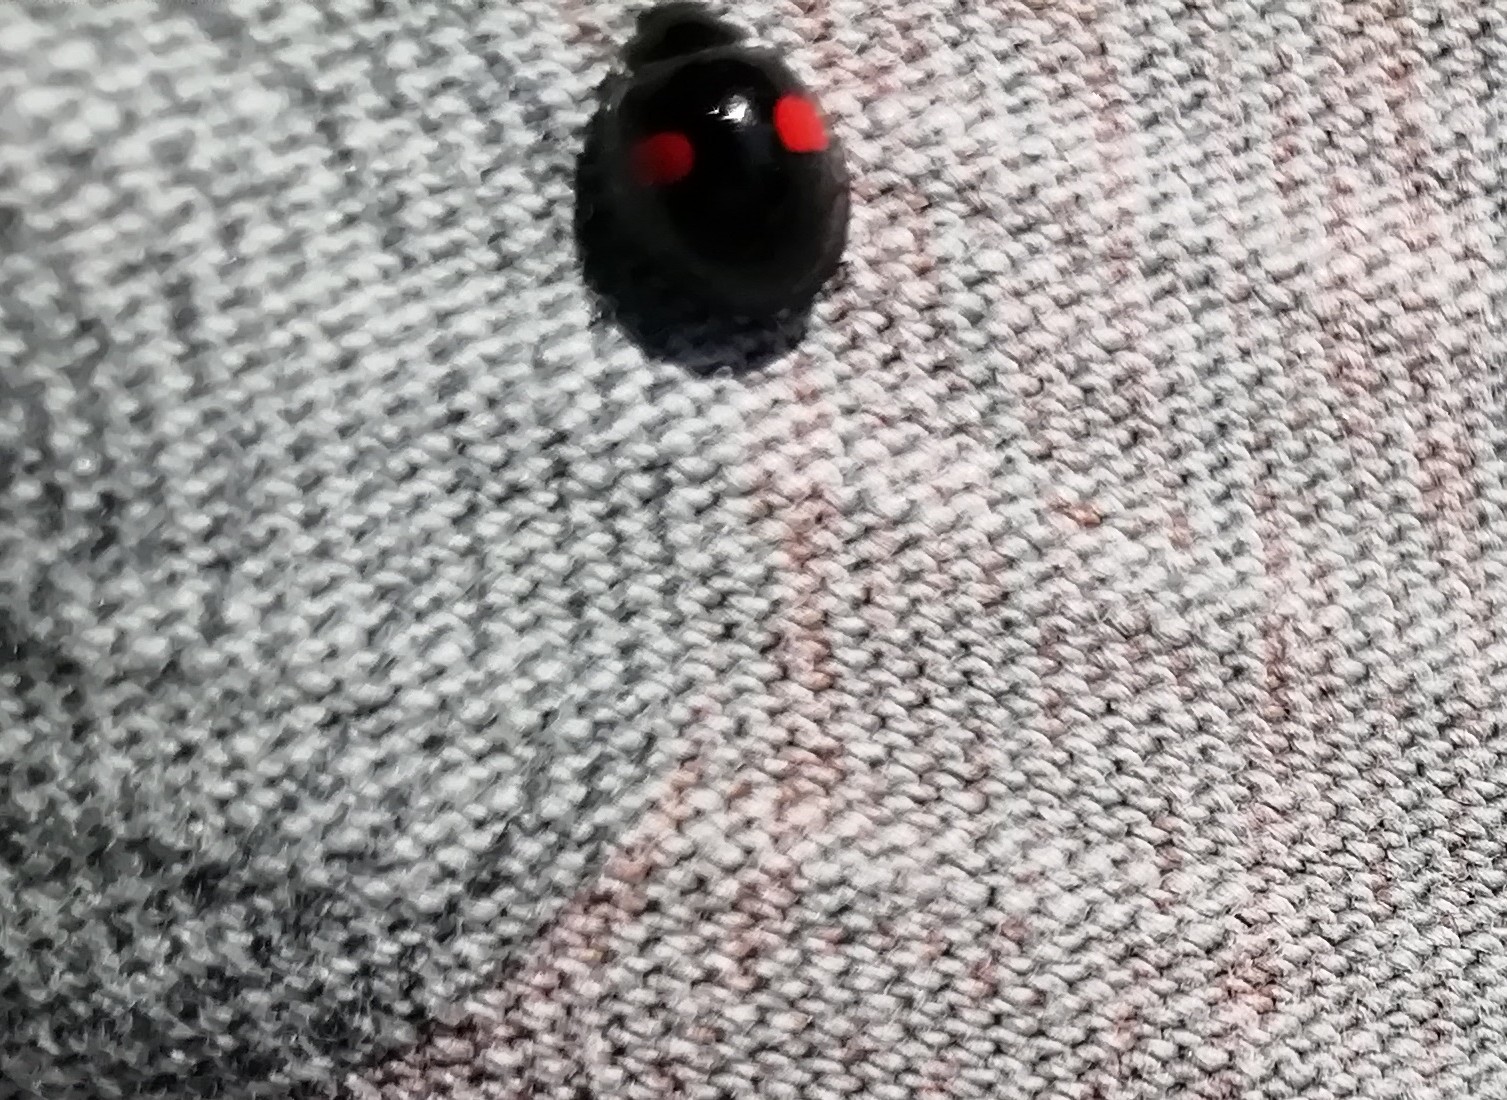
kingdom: Animalia
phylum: Arthropoda
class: Insecta
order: Coleoptera
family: Coccinellidae
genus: Chilocorus
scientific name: Chilocorus renipustulatus
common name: Kidney-spot ladybird
